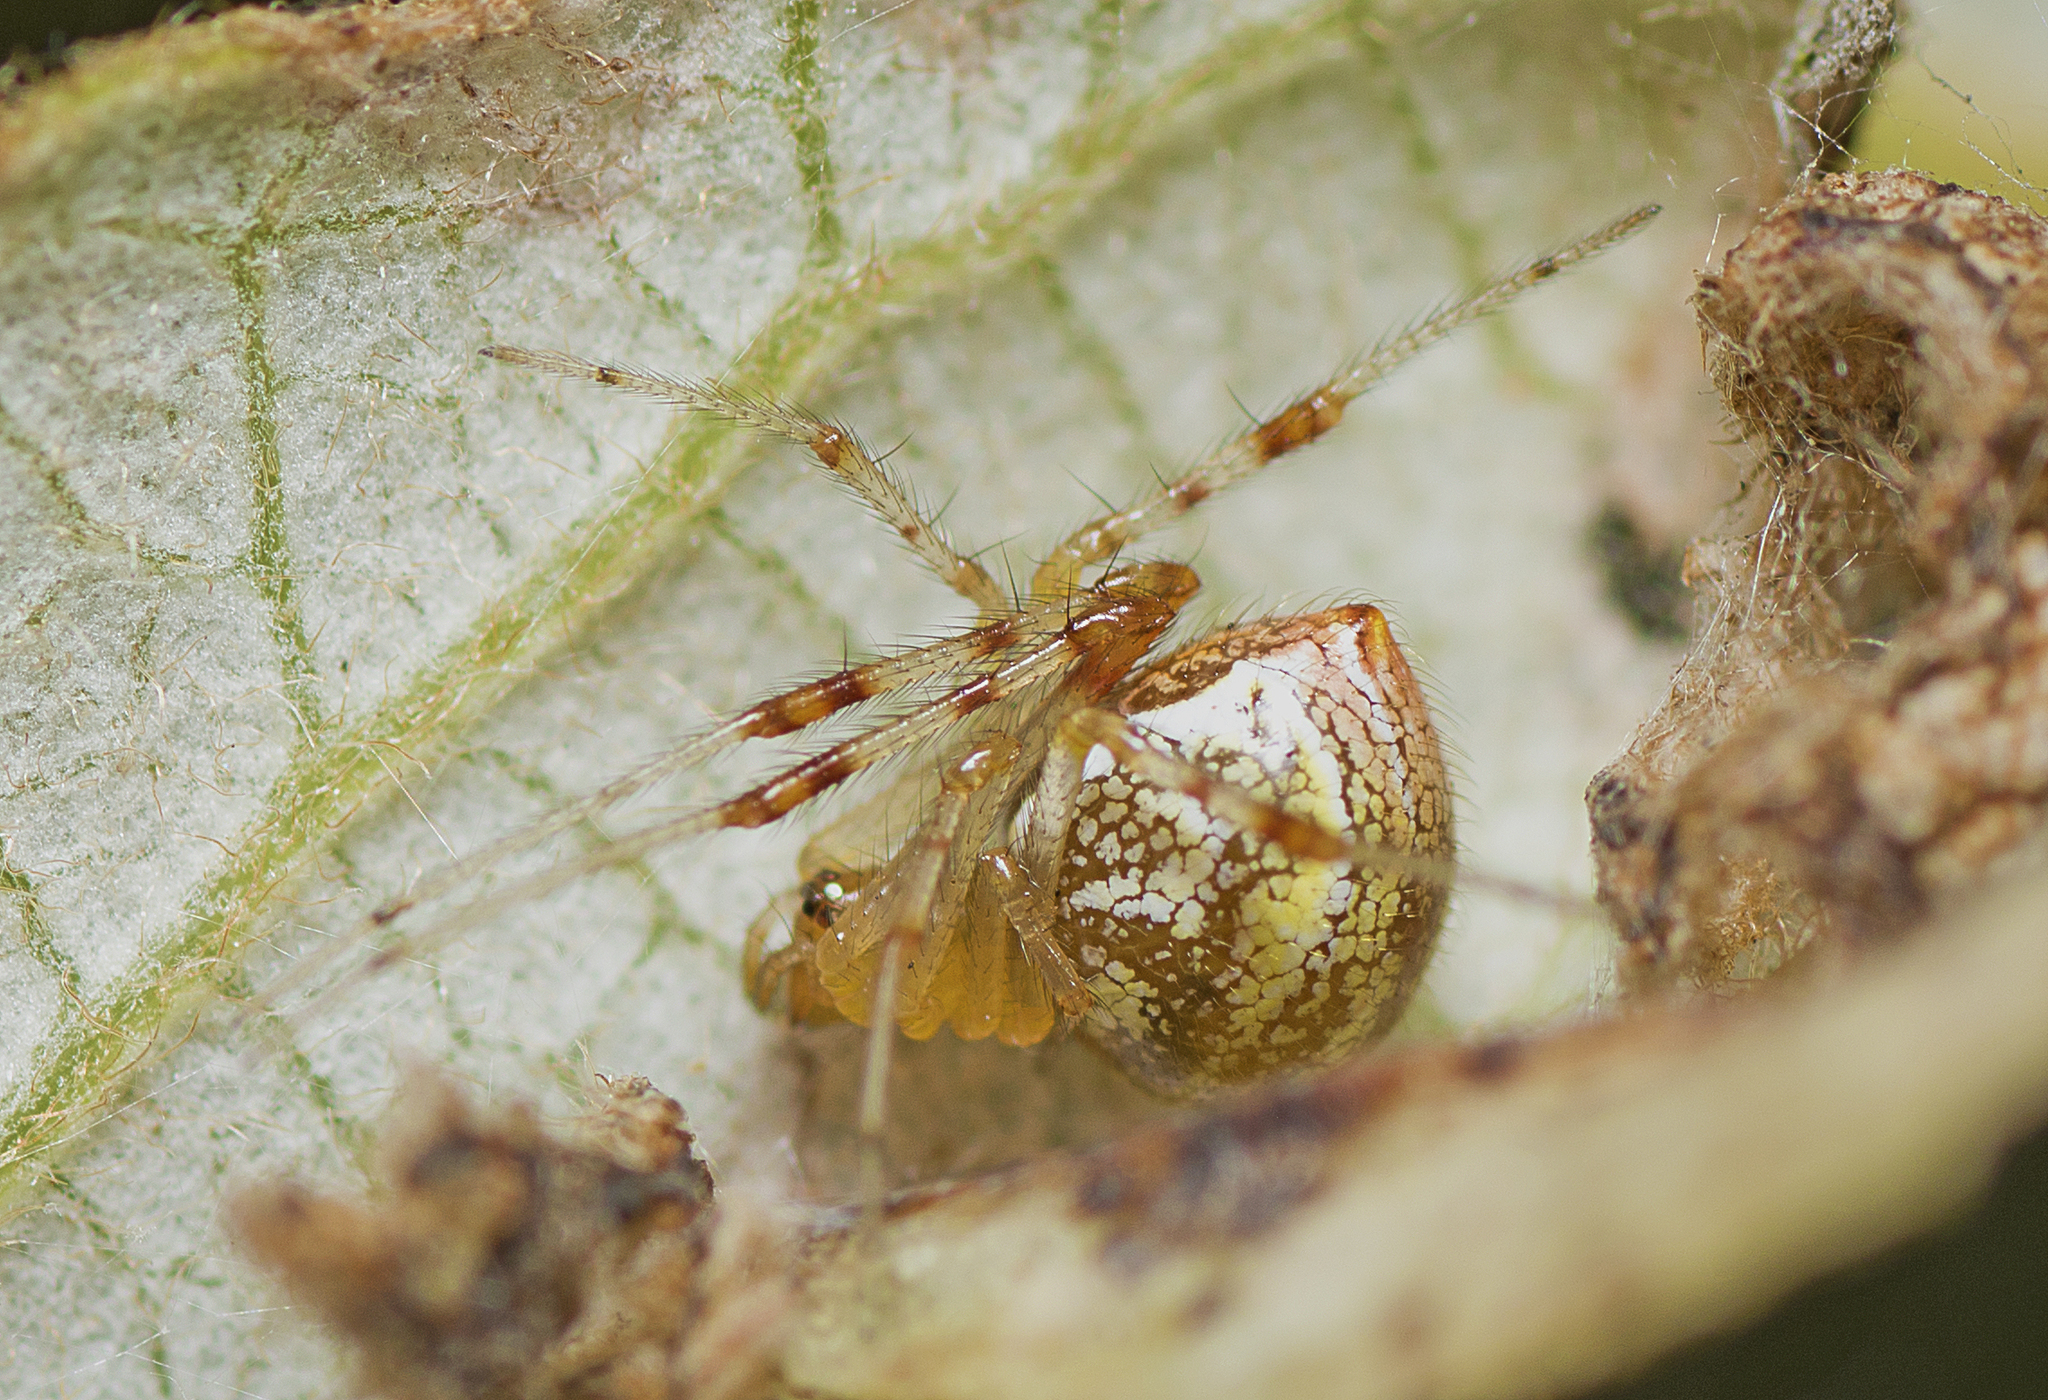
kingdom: Animalia
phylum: Arthropoda
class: Arachnida
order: Araneae
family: Theridiidae
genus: Theridion
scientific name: Theridion pyramidale
